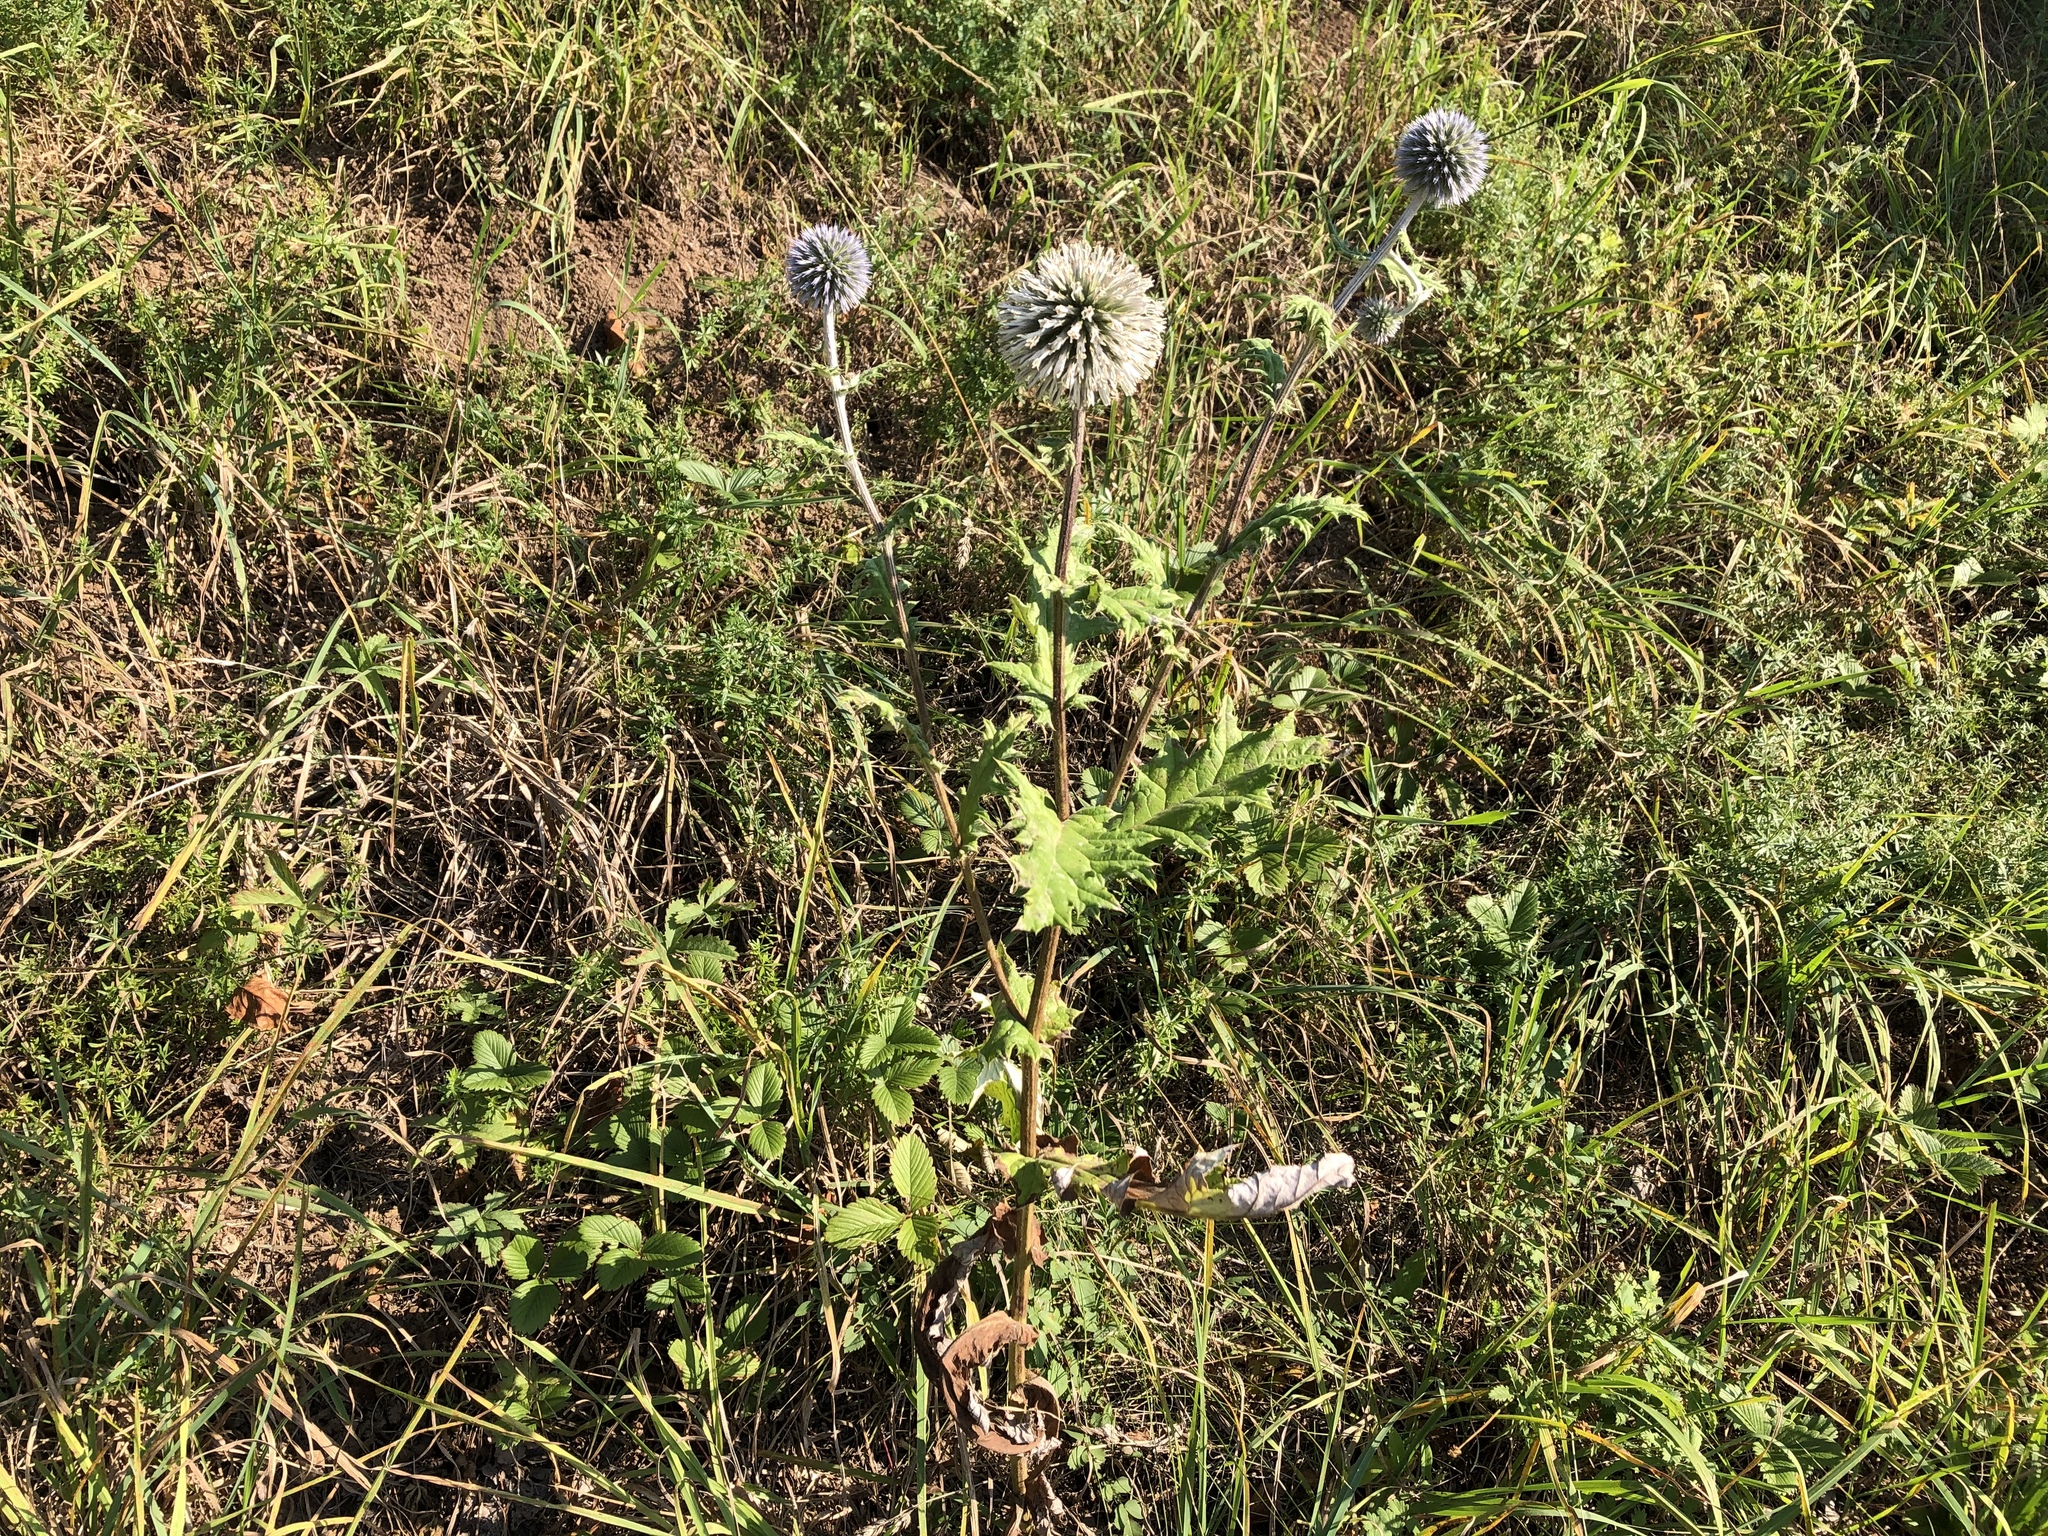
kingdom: Plantae
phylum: Tracheophyta
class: Magnoliopsida
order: Asterales
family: Asteraceae
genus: Echinops
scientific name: Echinops sphaerocephalus
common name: Glandular globe-thistle
